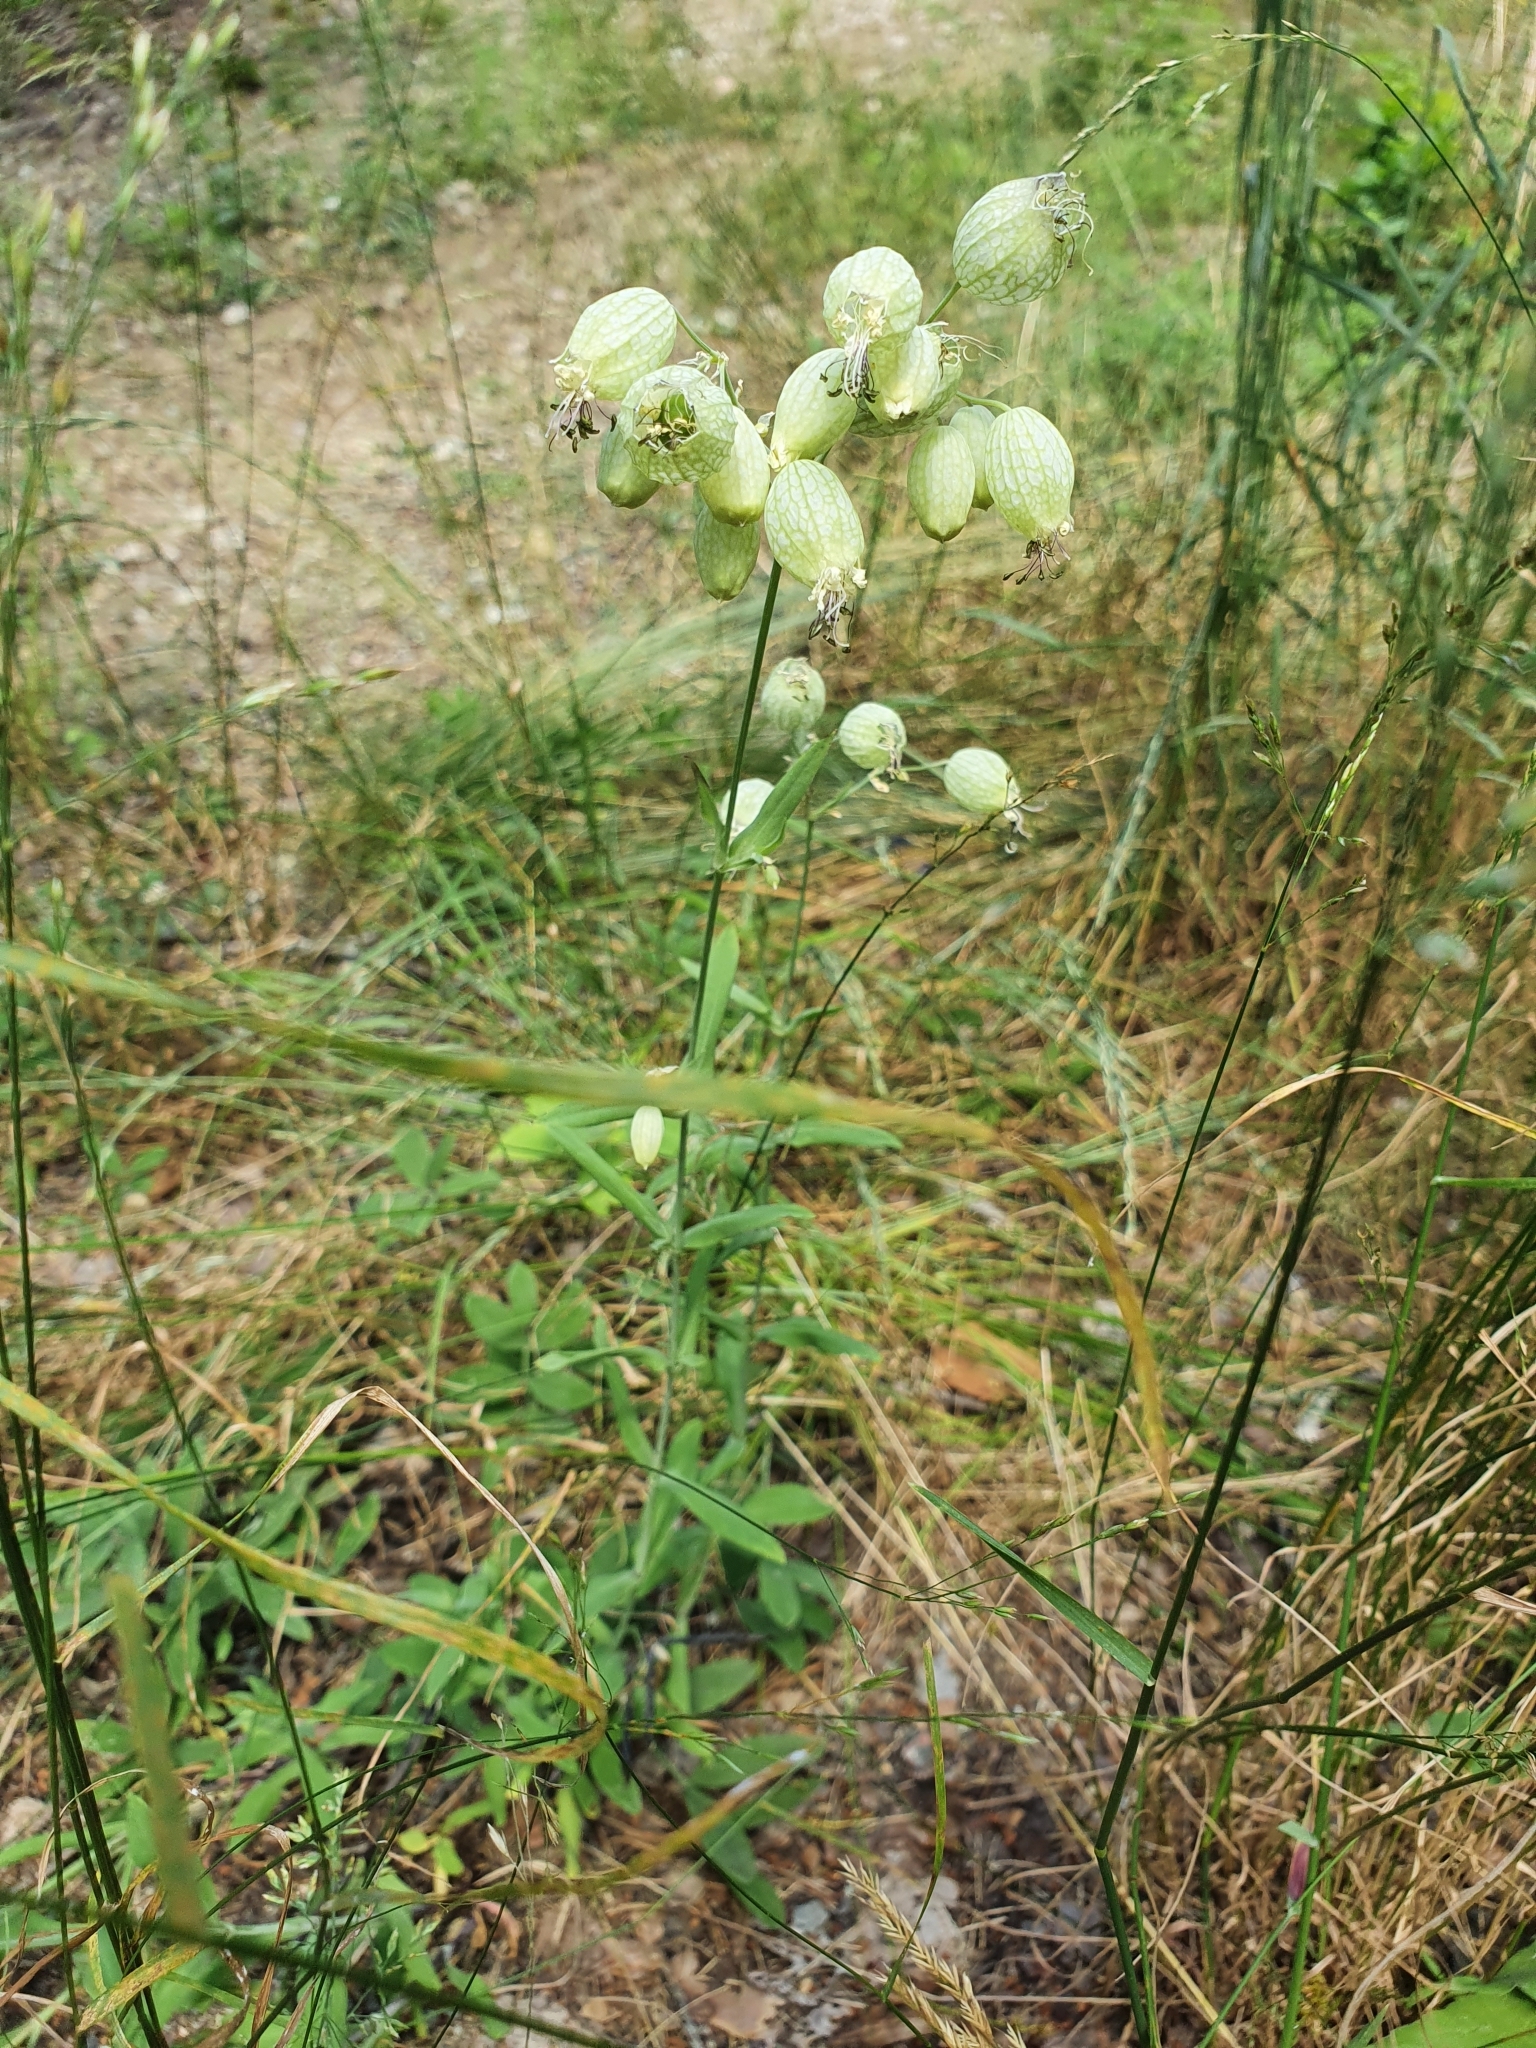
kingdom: Plantae
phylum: Tracheophyta
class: Magnoliopsida
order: Caryophyllales
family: Caryophyllaceae
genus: Silene
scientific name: Silene vulgaris
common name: Bladder campion
